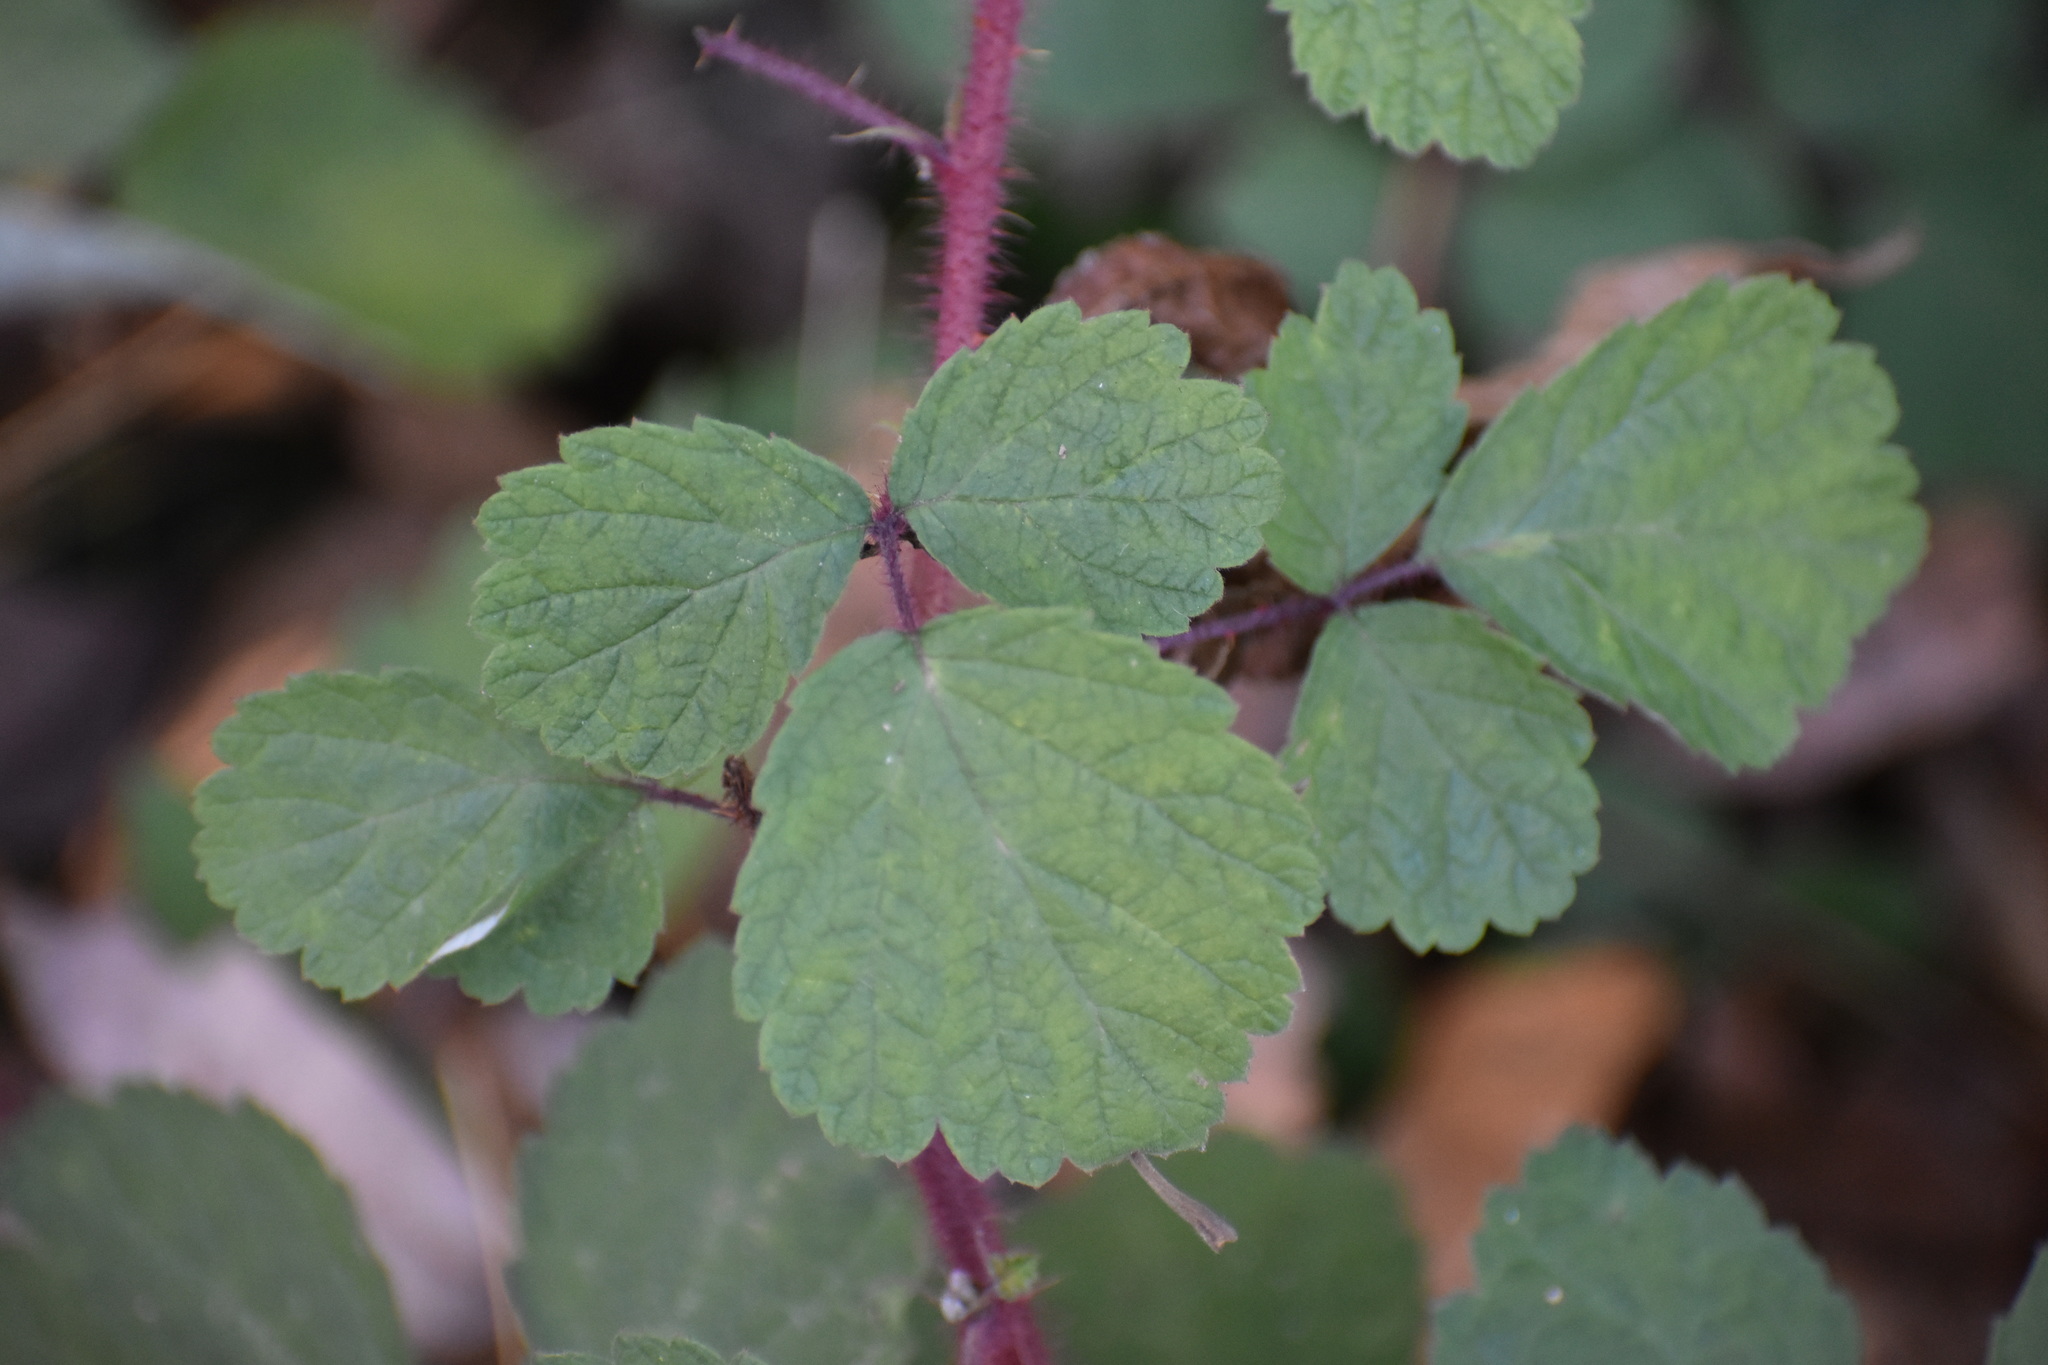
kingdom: Plantae
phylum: Tracheophyta
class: Magnoliopsida
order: Rosales
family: Rosaceae
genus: Rubus
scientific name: Rubus phoenicolasius
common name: Japanese wineberry
